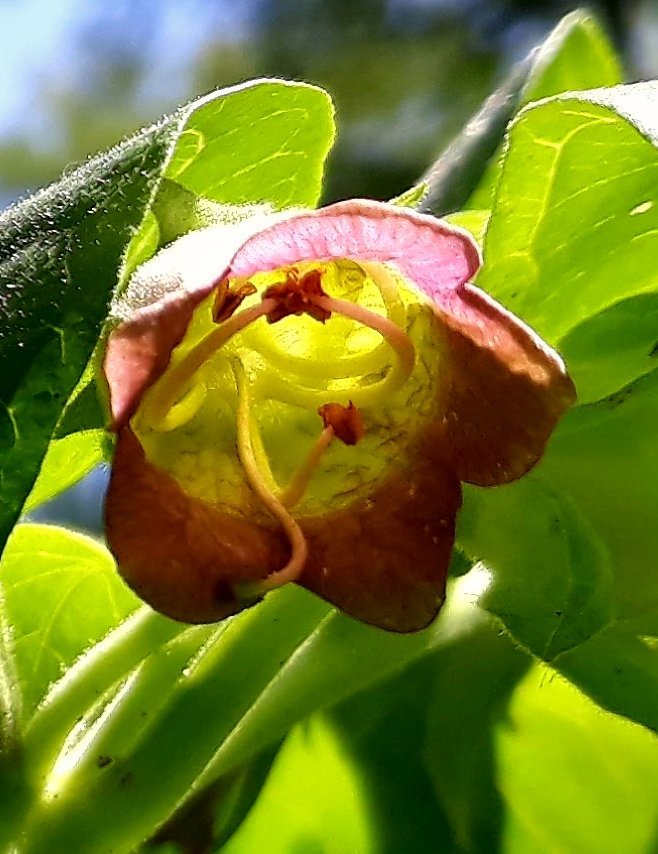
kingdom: Plantae
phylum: Tracheophyta
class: Magnoliopsida
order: Solanales
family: Solanaceae
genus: Atropa
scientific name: Atropa belladonna
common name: Deadly nightshade
